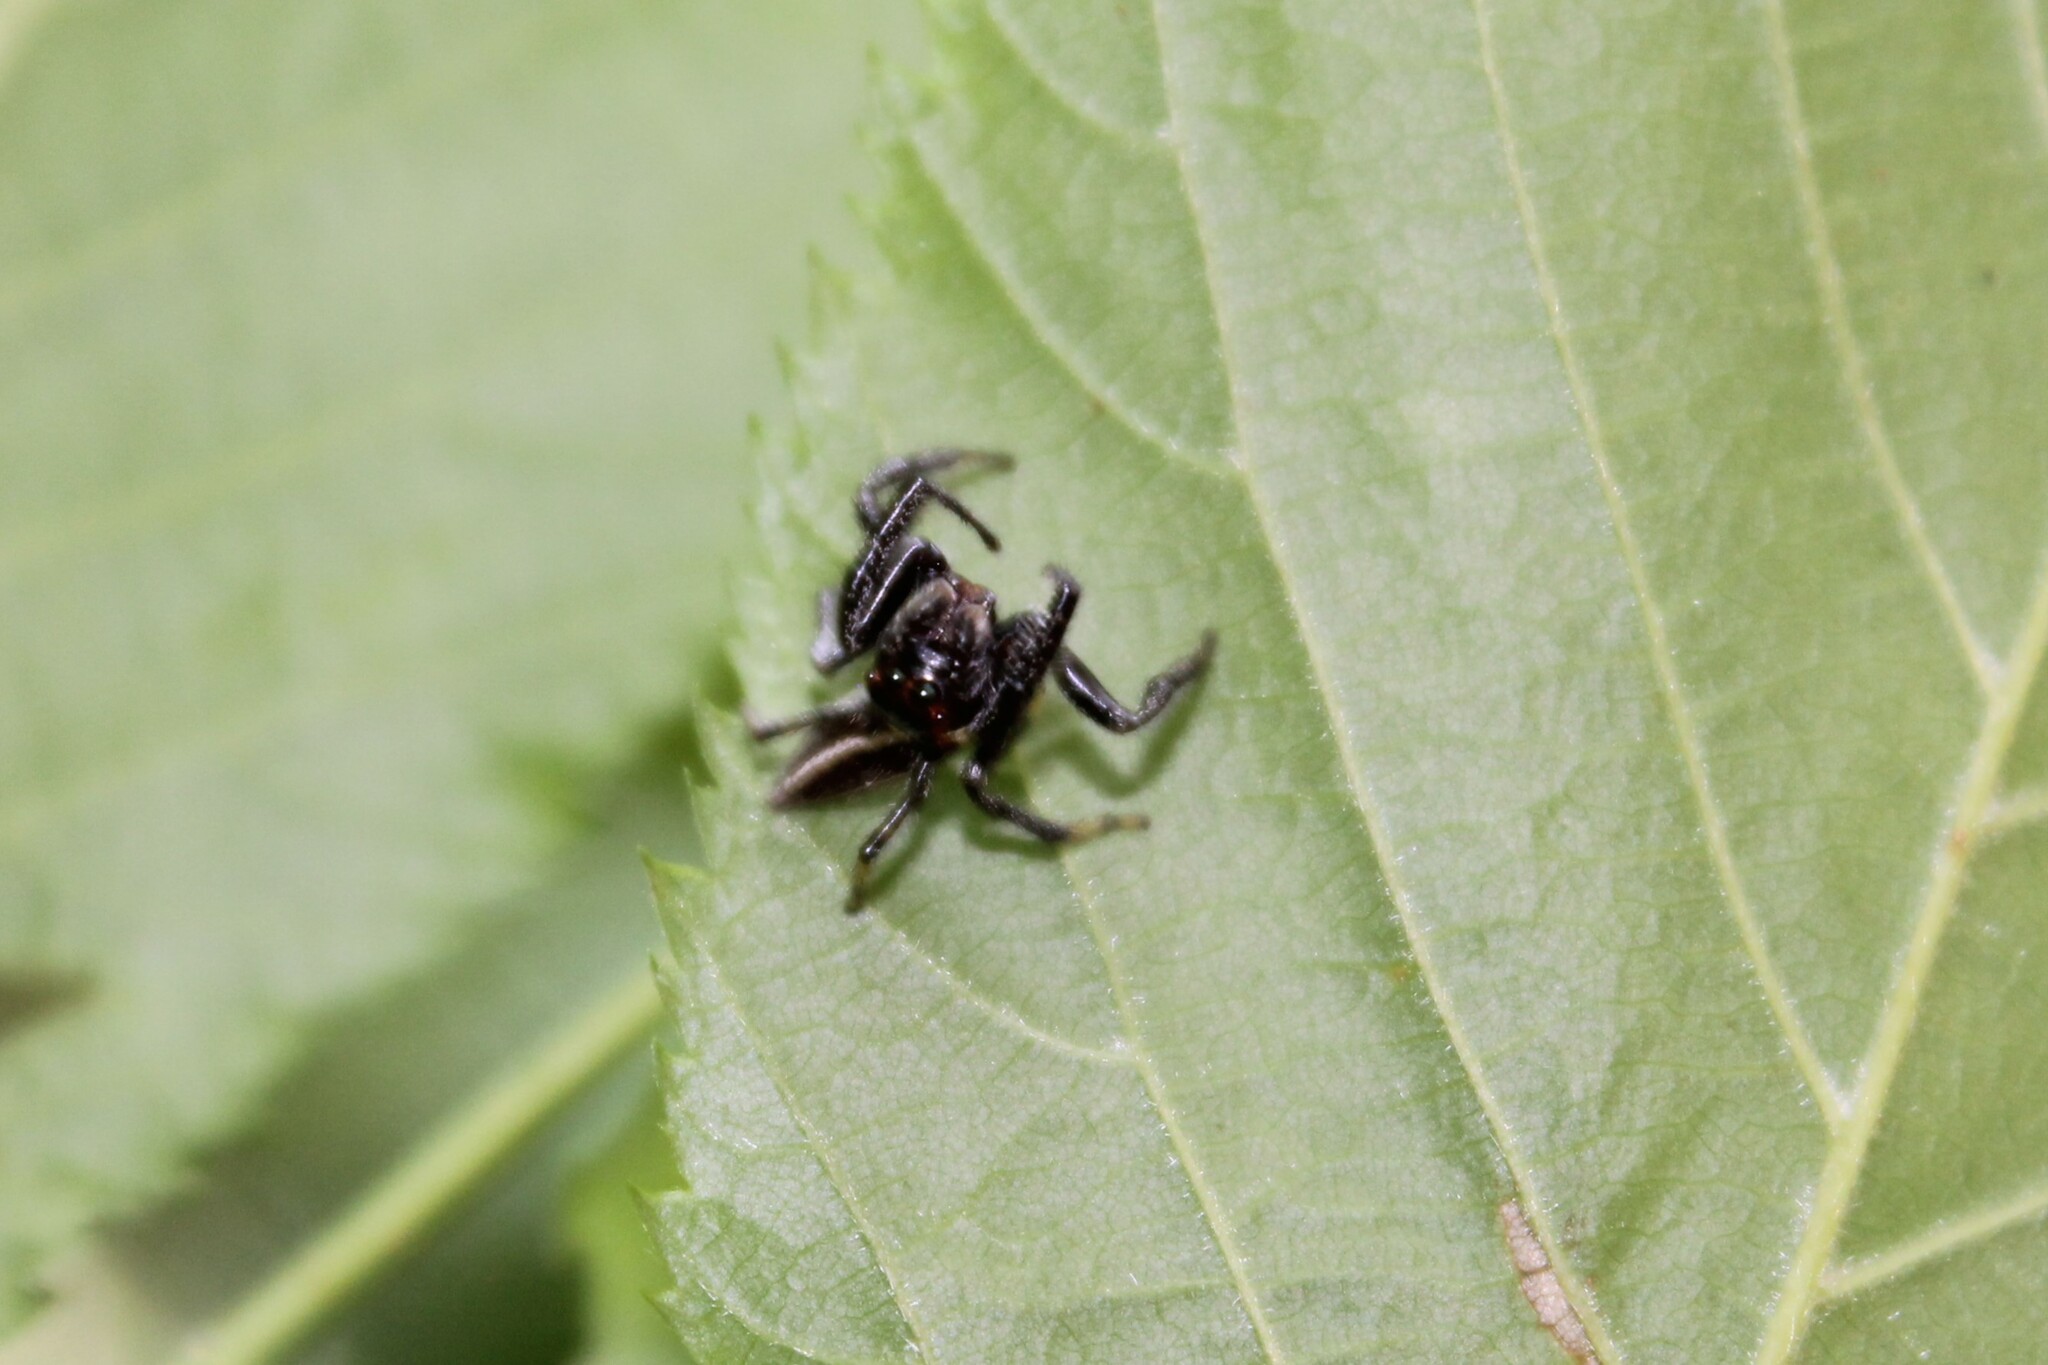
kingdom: Animalia
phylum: Arthropoda
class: Arachnida
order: Araneae
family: Salticidae
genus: Colonus
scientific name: Colonus sylvanus
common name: Jumping spiders
